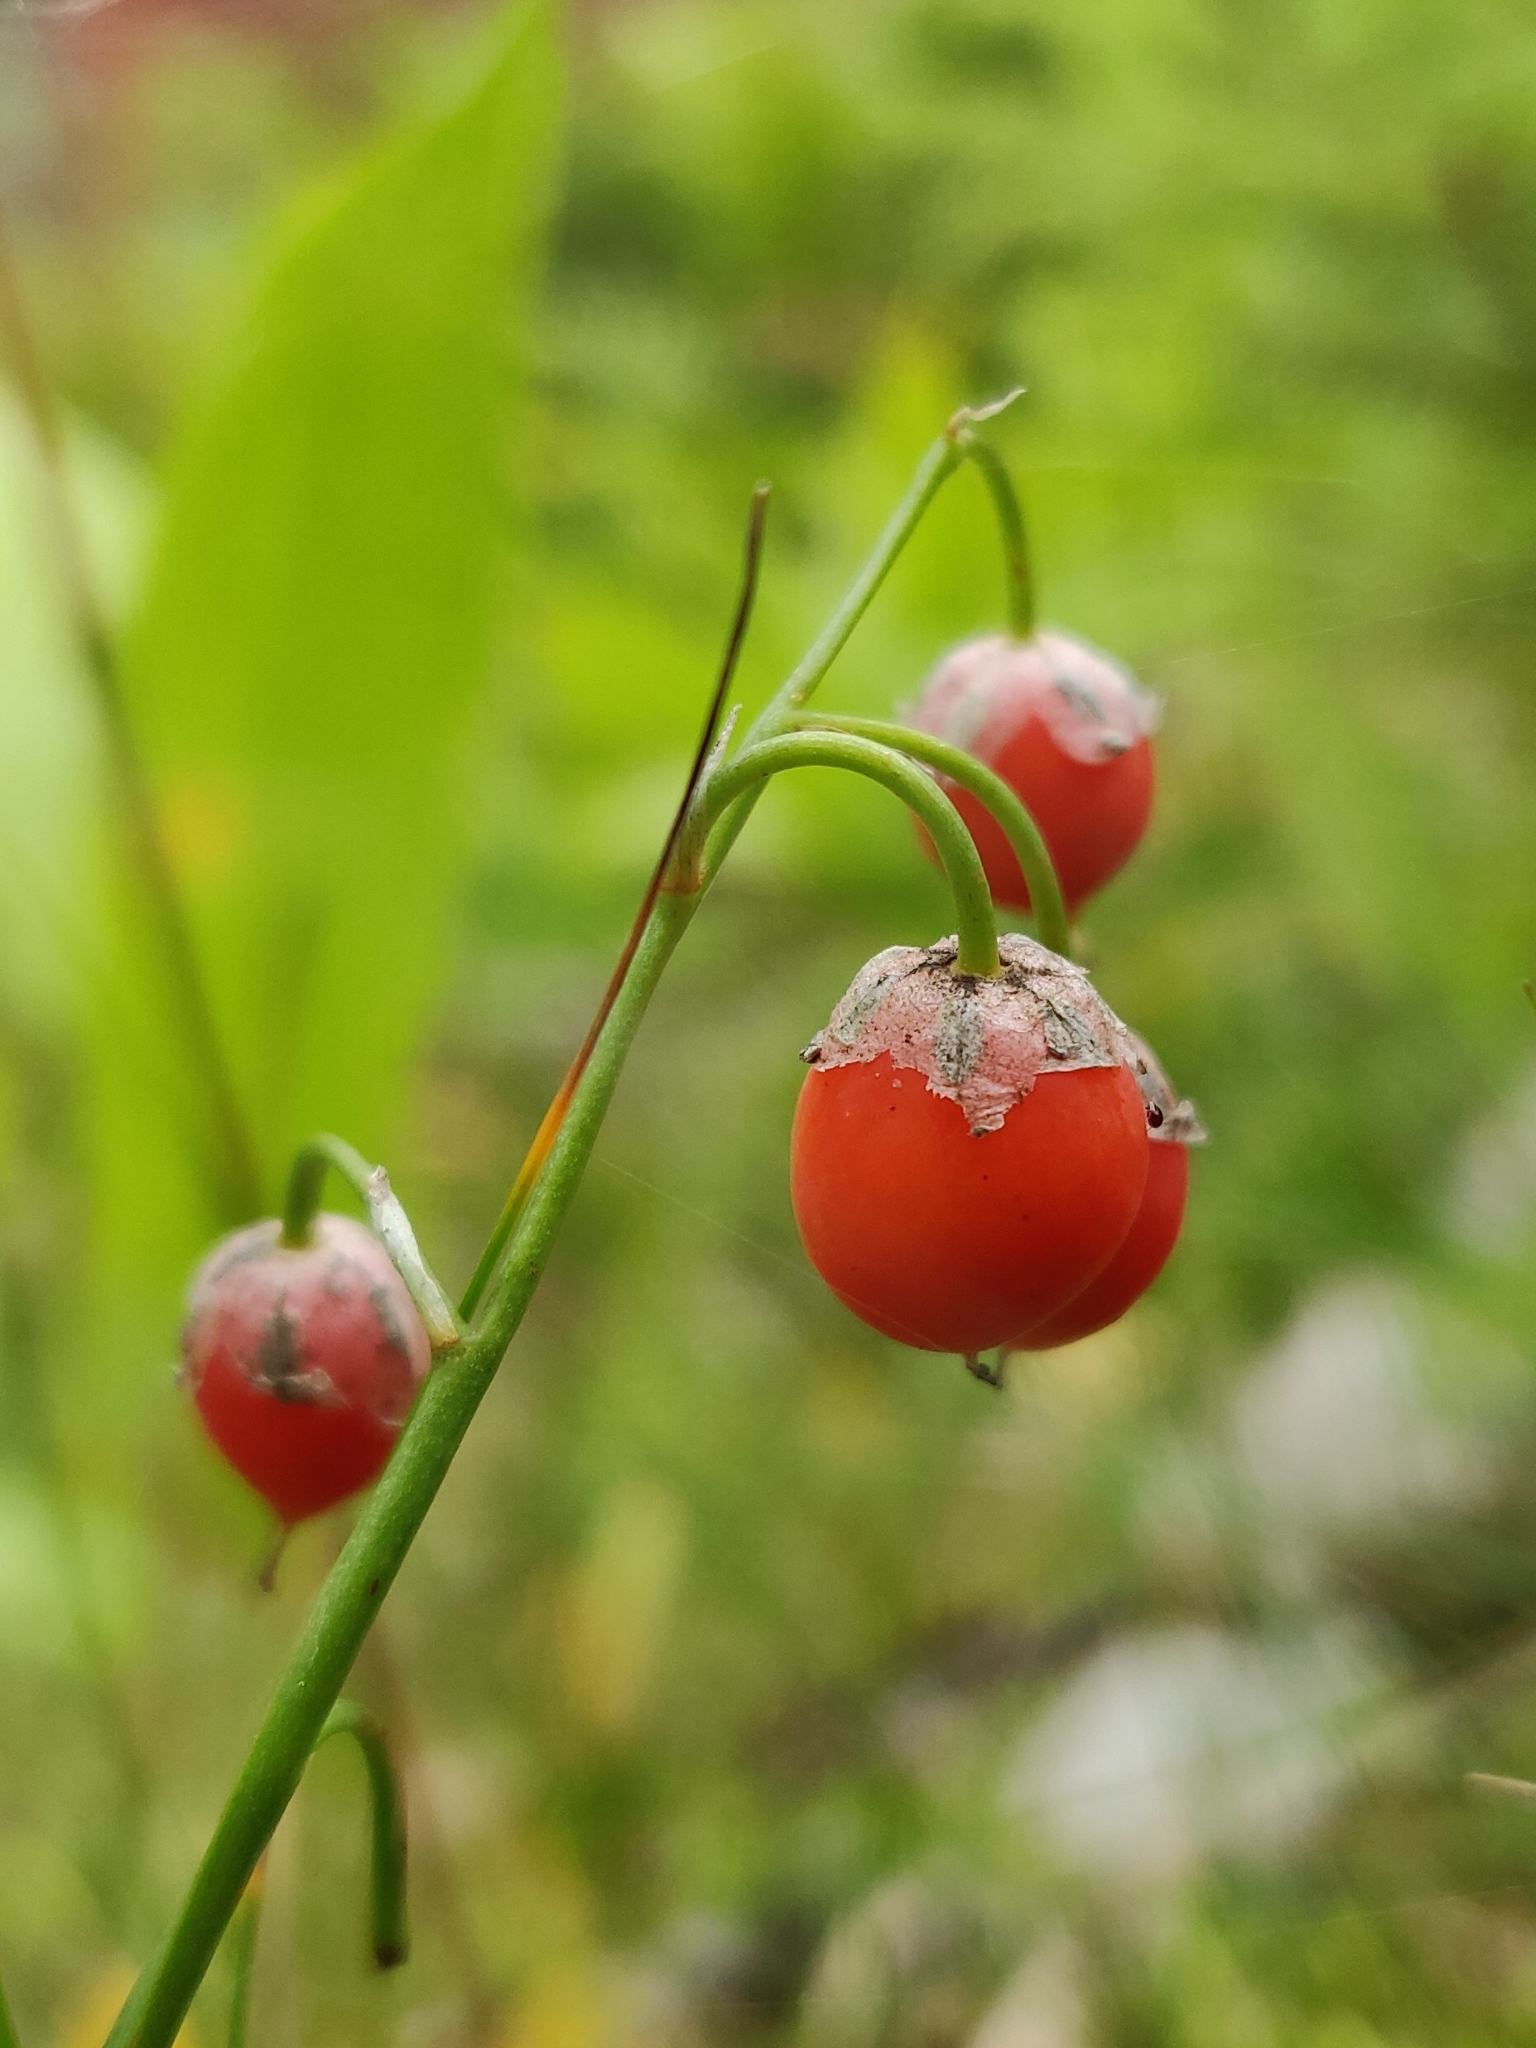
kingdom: Plantae
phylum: Tracheophyta
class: Liliopsida
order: Asparagales
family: Asparagaceae
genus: Convallaria
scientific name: Convallaria majalis
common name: Lily-of-the-valley
